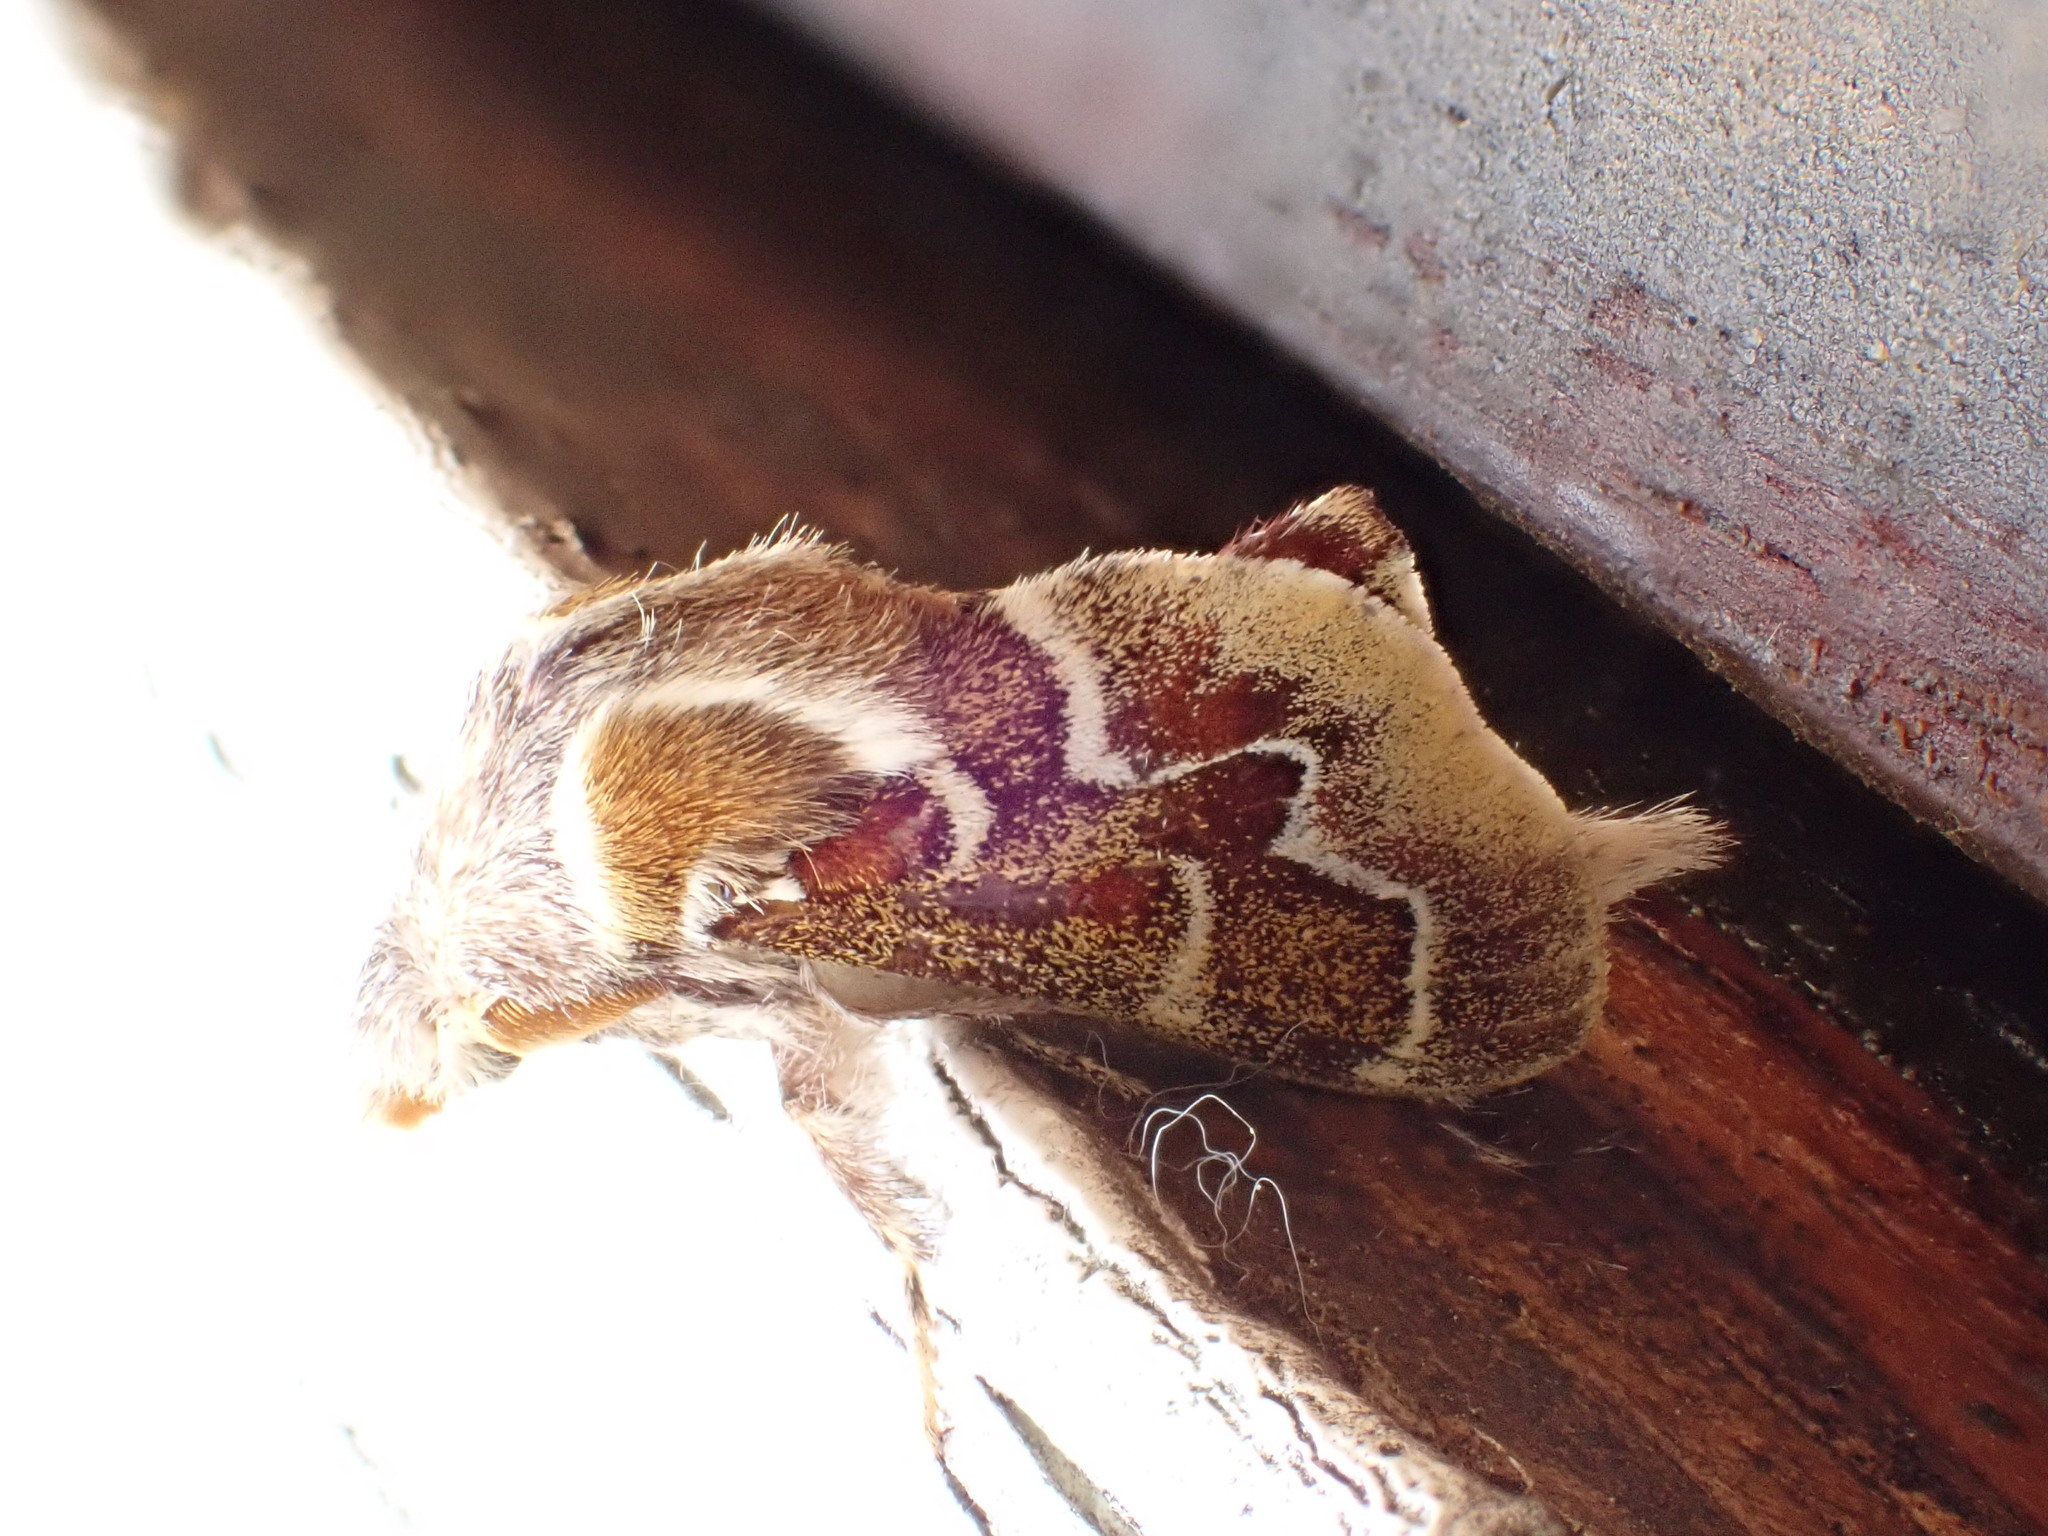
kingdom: Animalia
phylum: Arthropoda
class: Insecta
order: Lepidoptera
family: Lasiocampidae
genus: Streblote
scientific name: Streblote cristata
